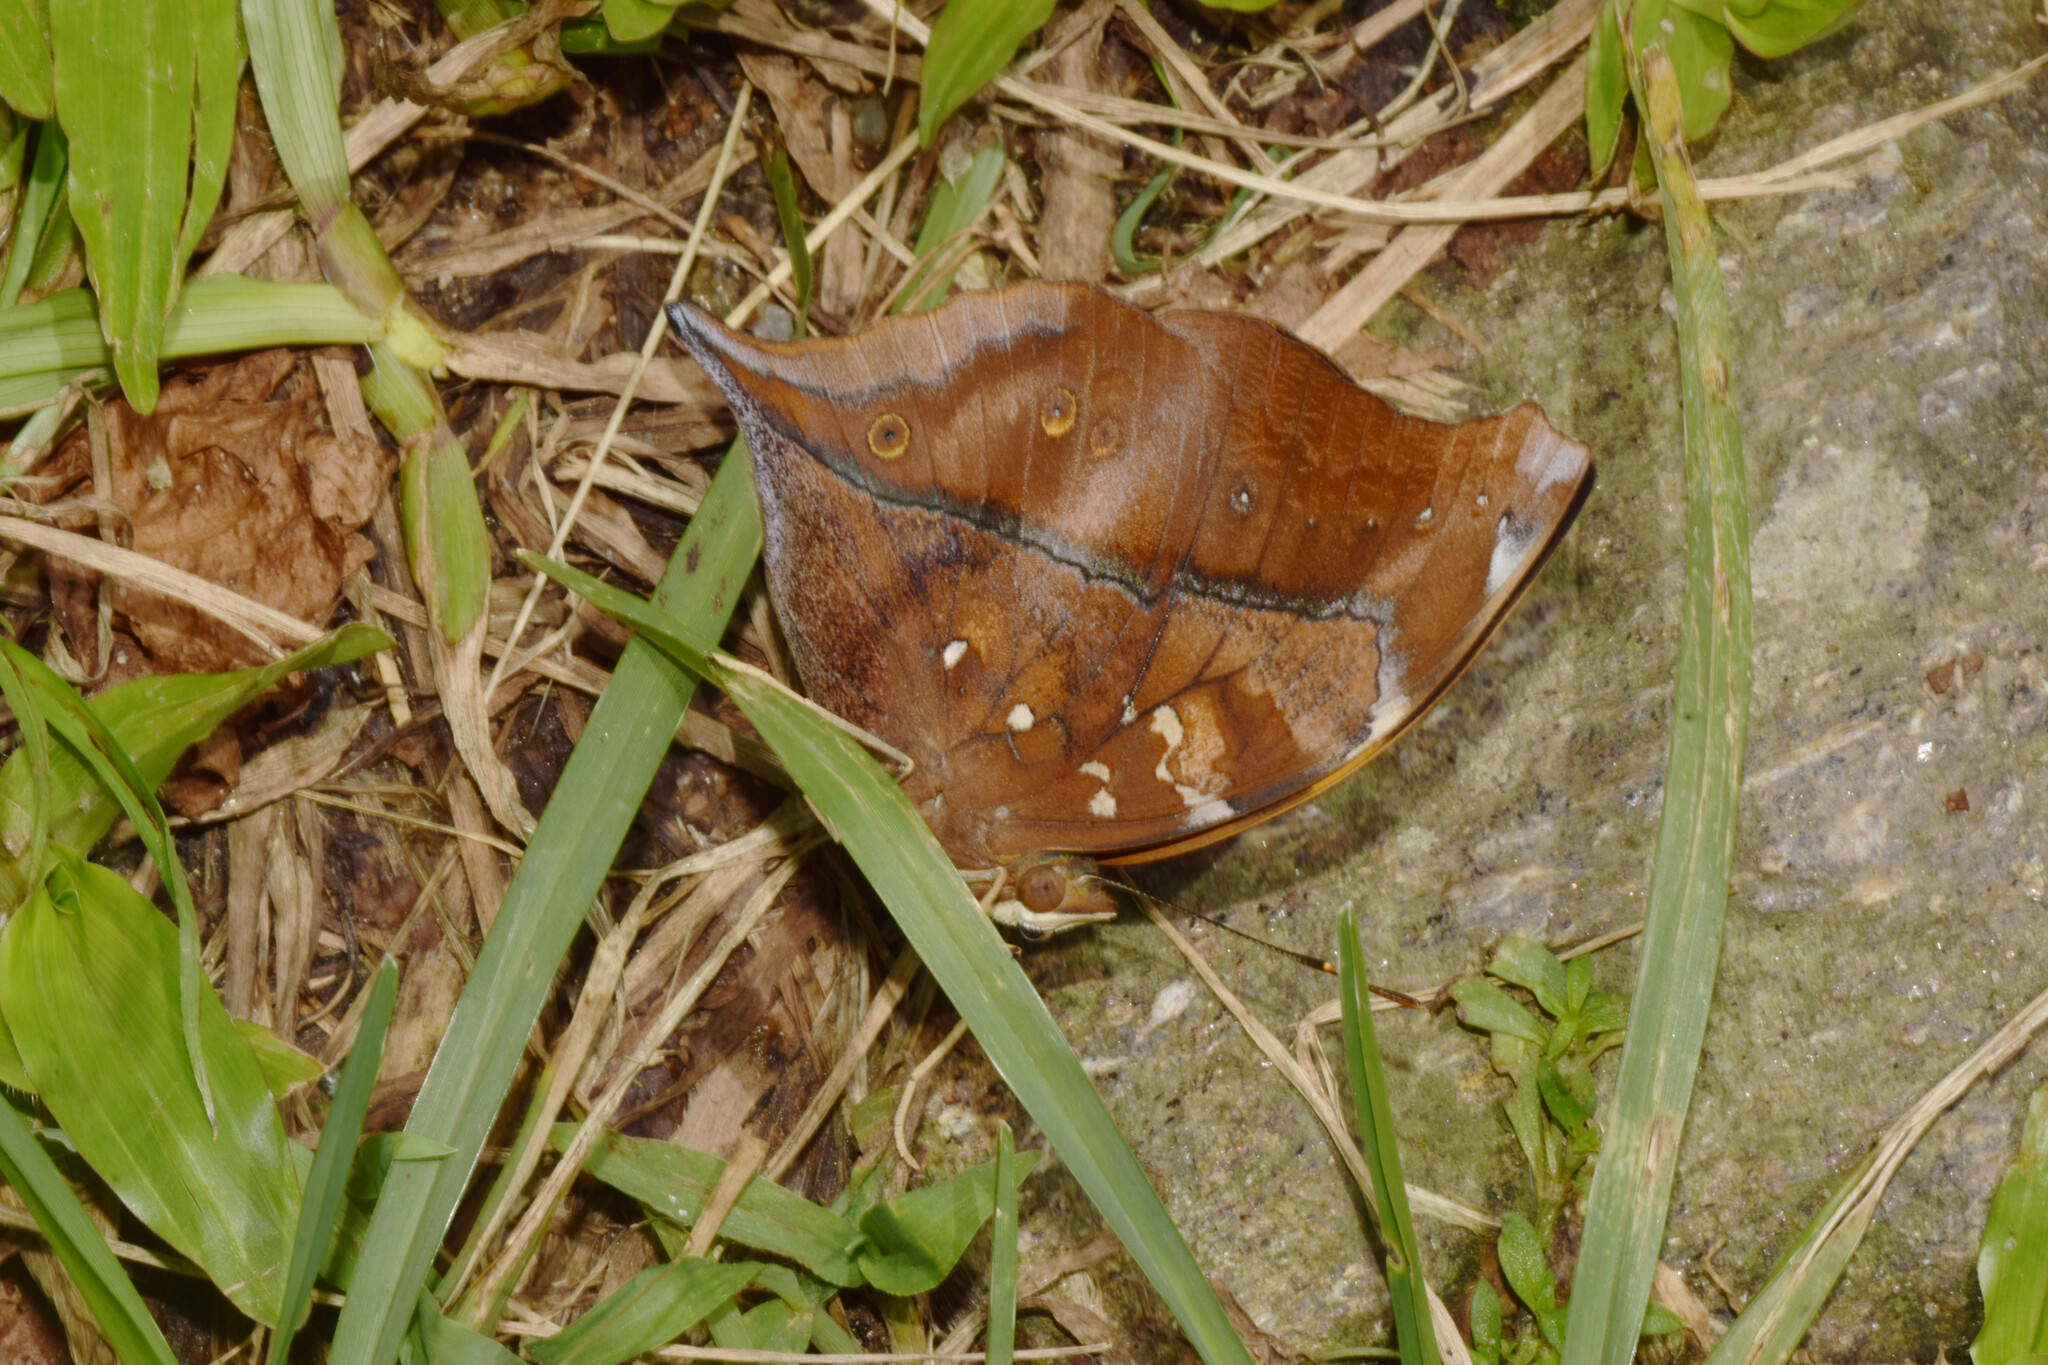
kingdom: Animalia
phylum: Arthropoda
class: Insecta
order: Lepidoptera
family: Nymphalidae
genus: Doleschallia
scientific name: Doleschallia bisaltide
